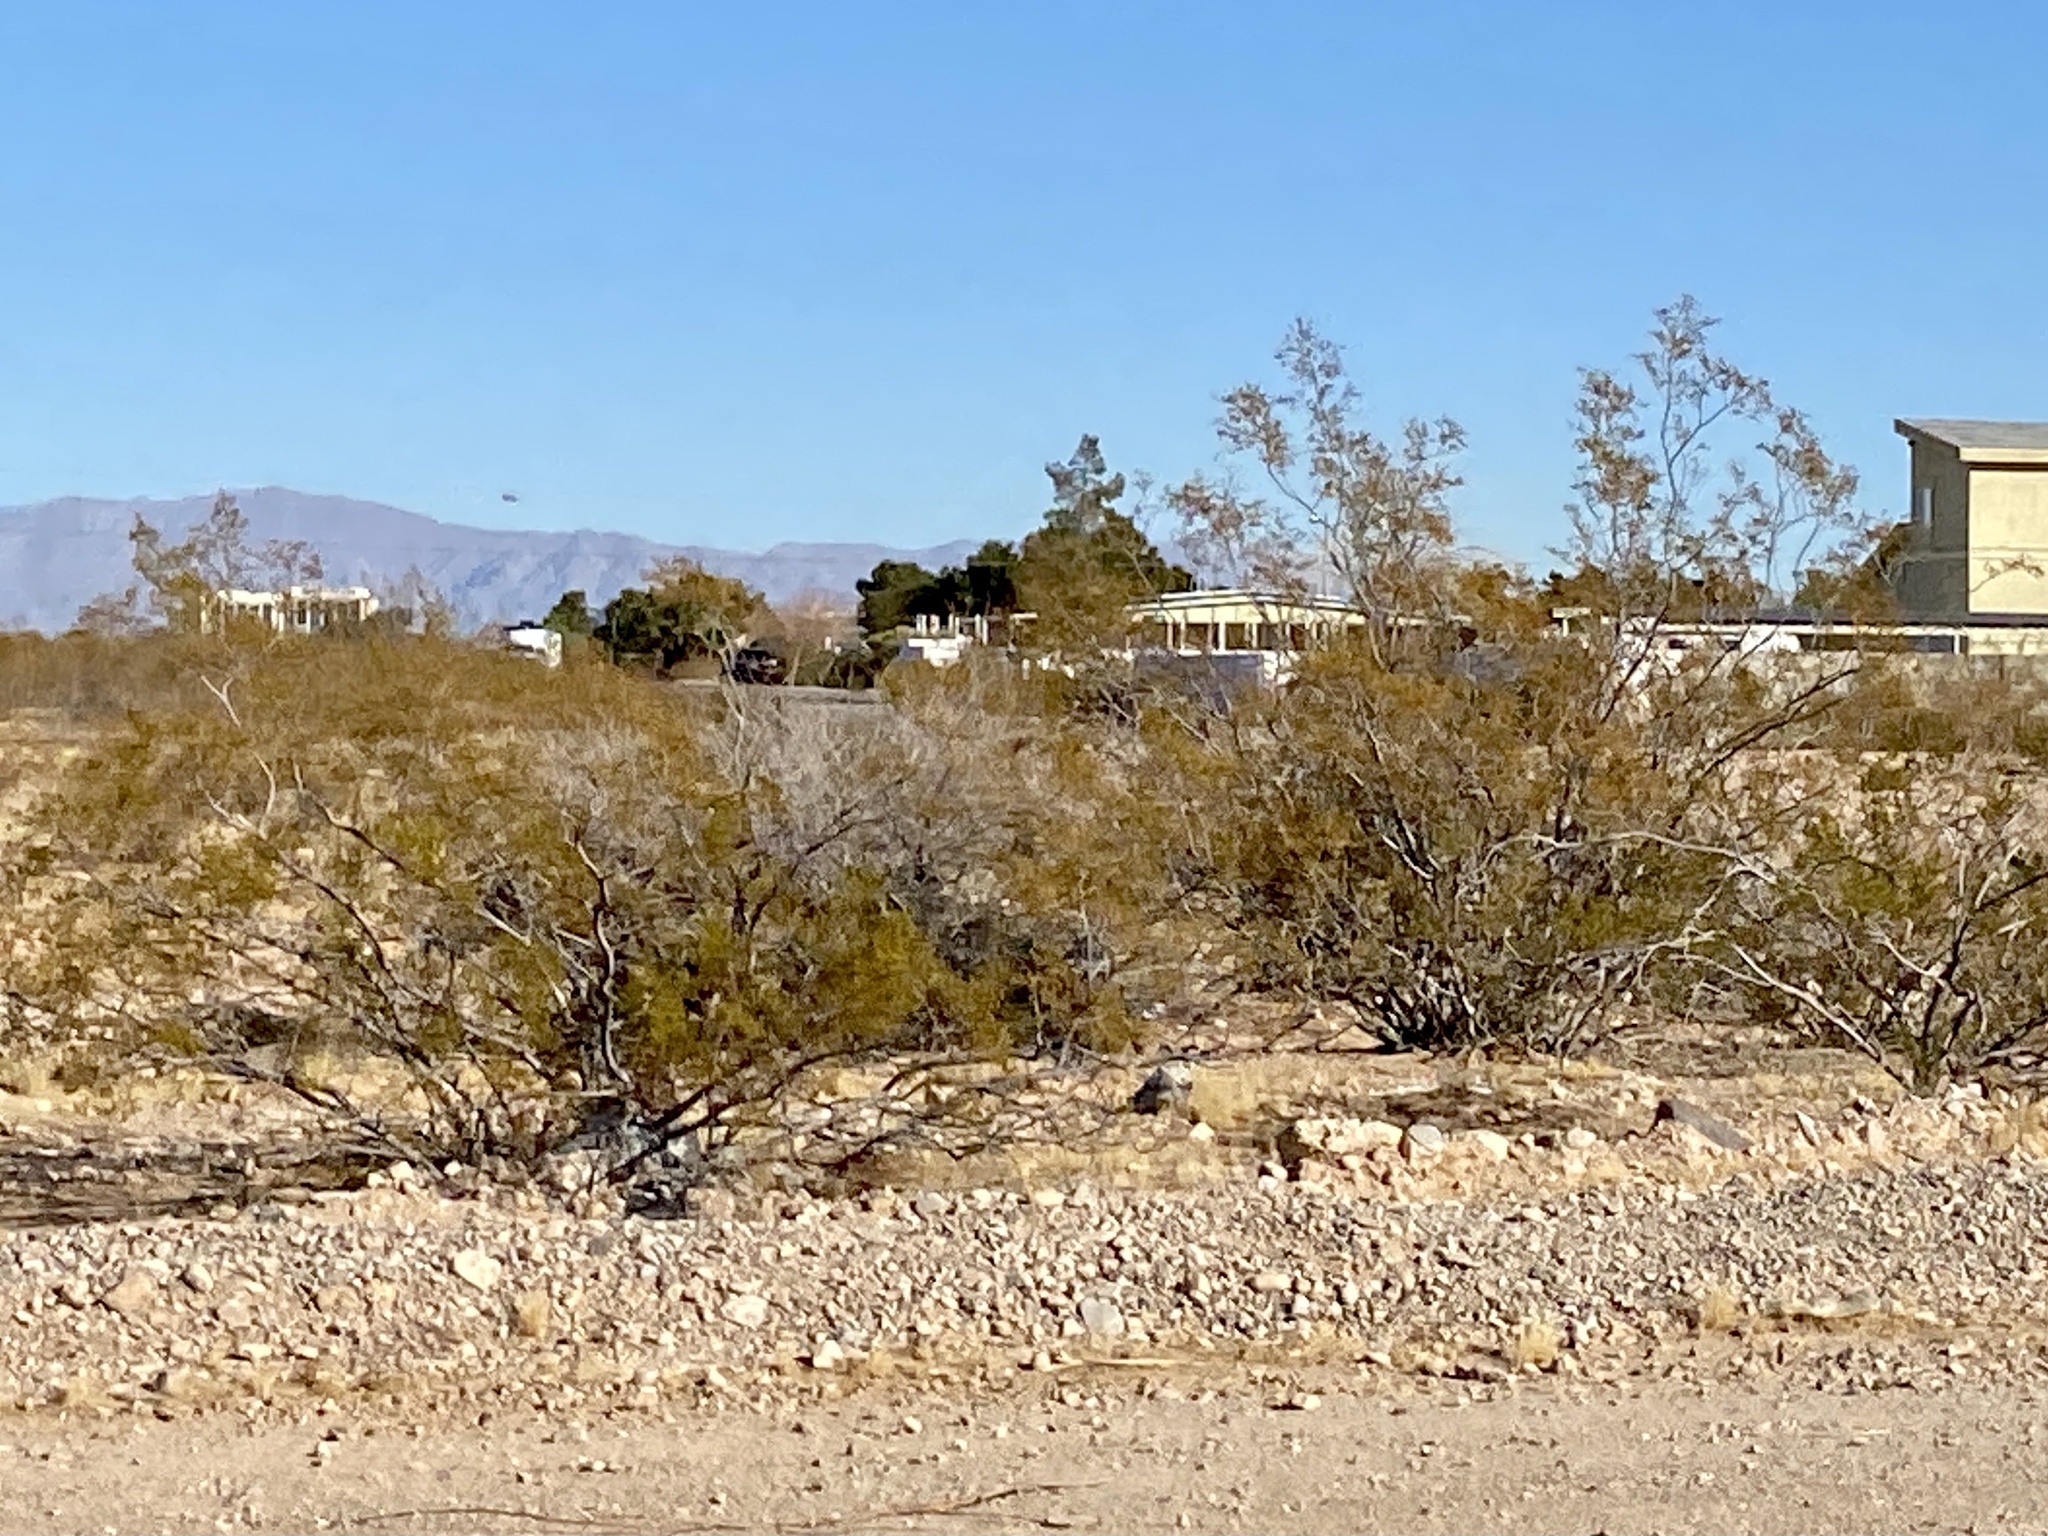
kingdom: Plantae
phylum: Tracheophyta
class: Magnoliopsida
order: Zygophyllales
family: Zygophyllaceae
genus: Larrea
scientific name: Larrea tridentata
